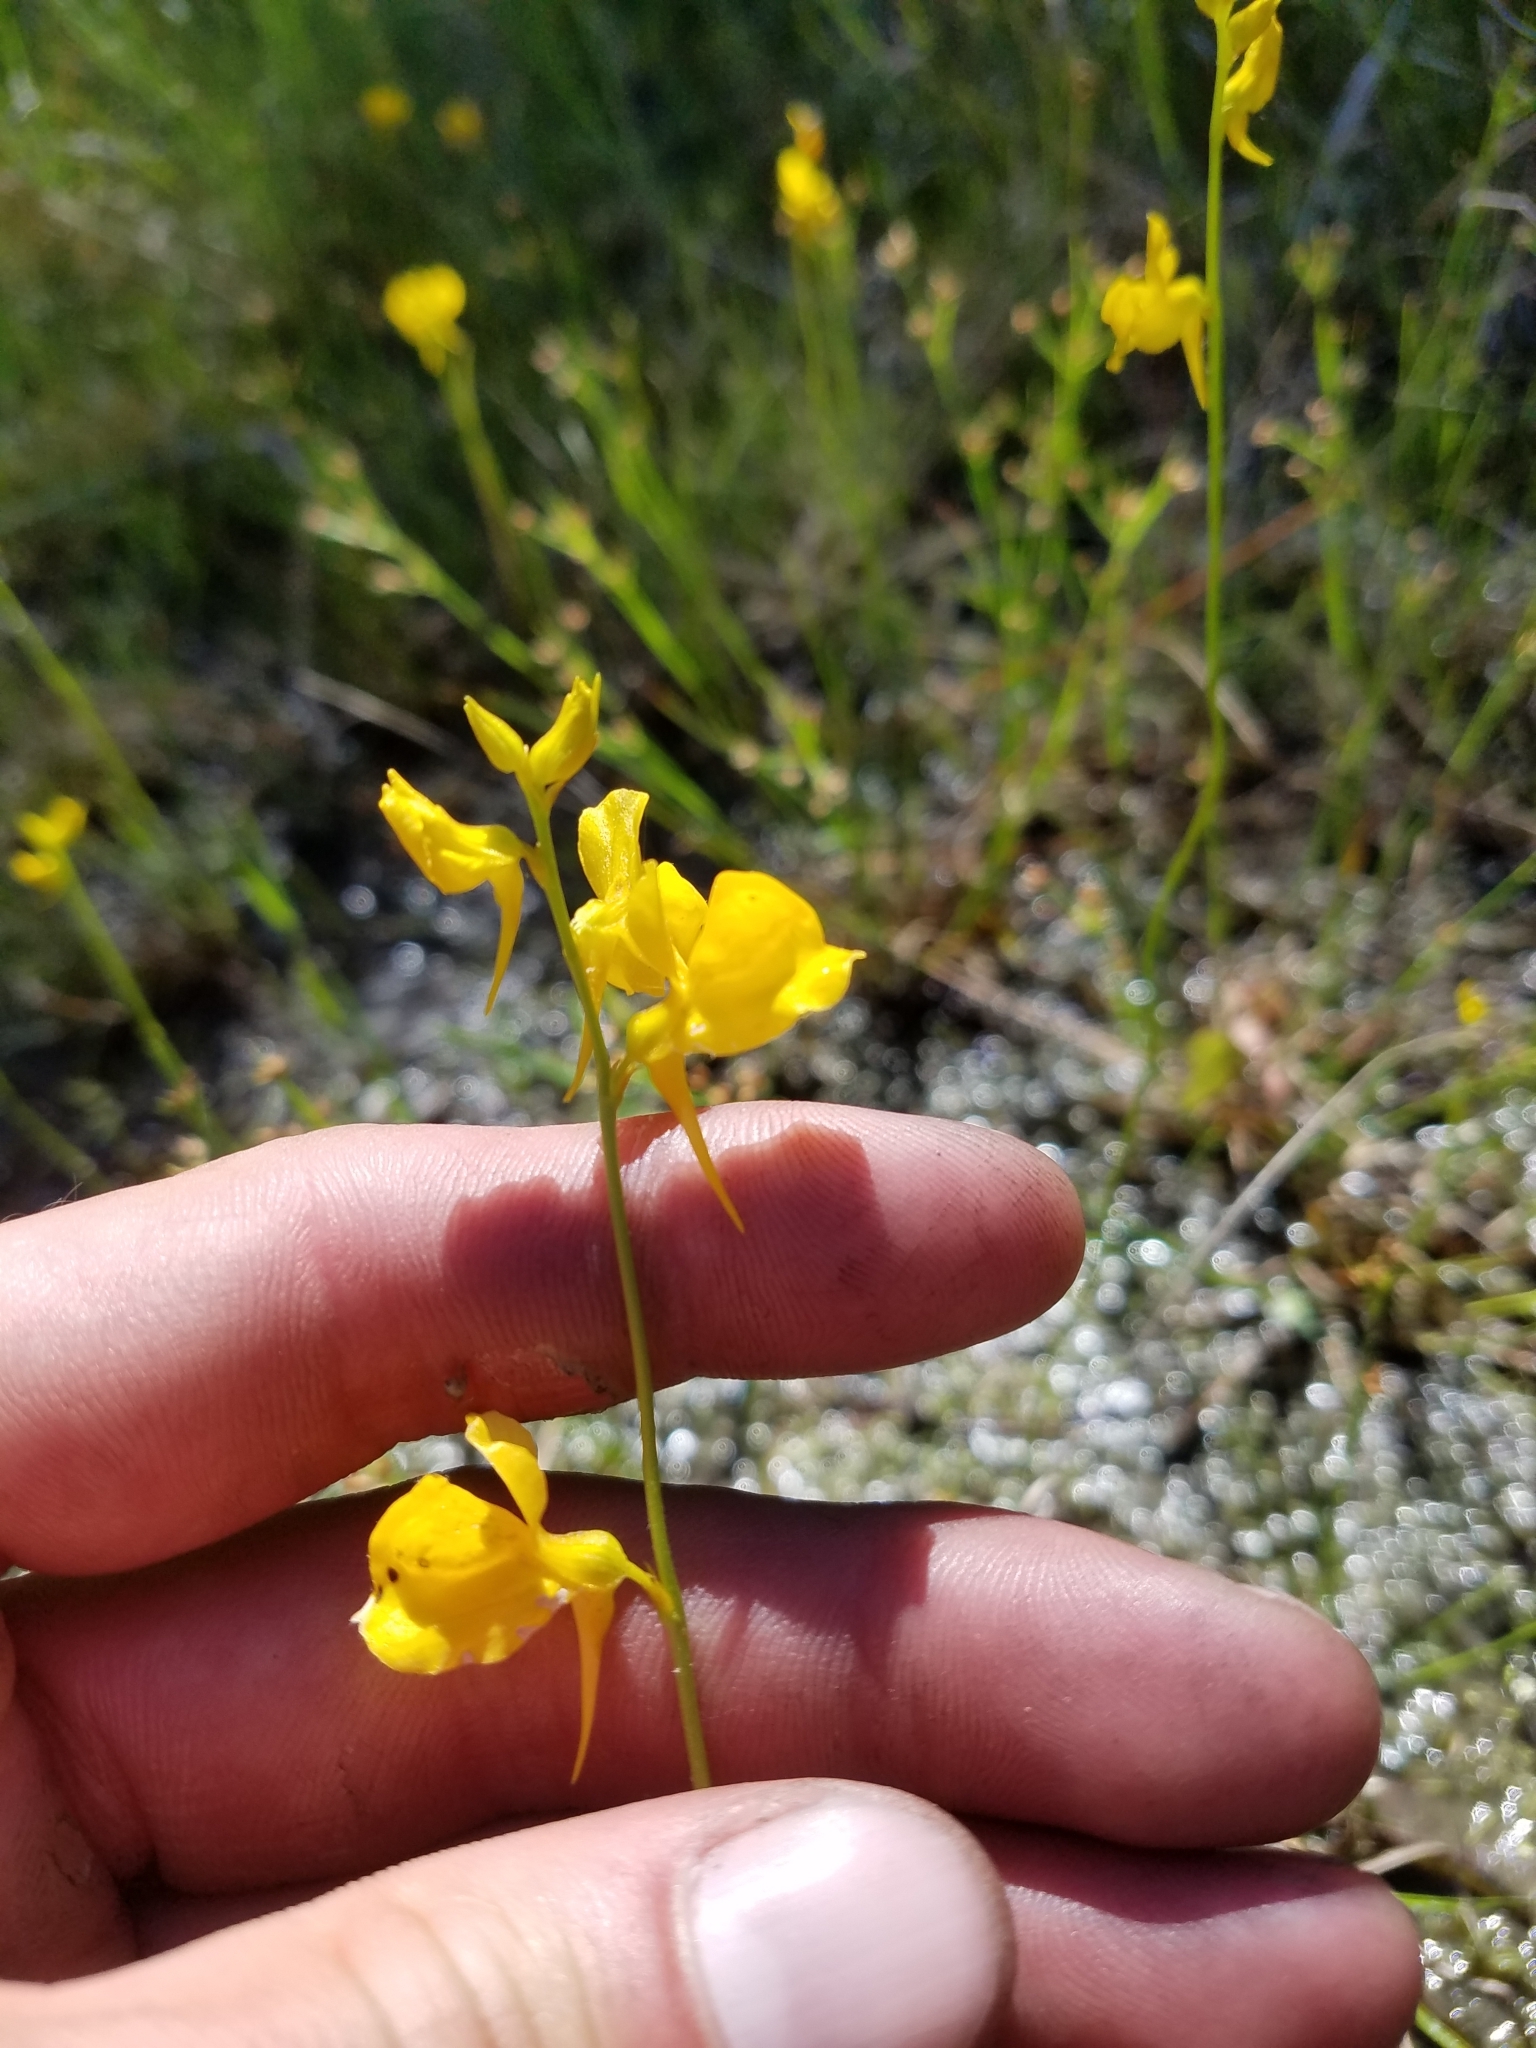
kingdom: Plantae
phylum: Tracheophyta
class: Magnoliopsida
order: Lamiales
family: Lentibulariaceae
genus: Utricularia
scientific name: Utricularia cornuta
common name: Horned bladderwort
